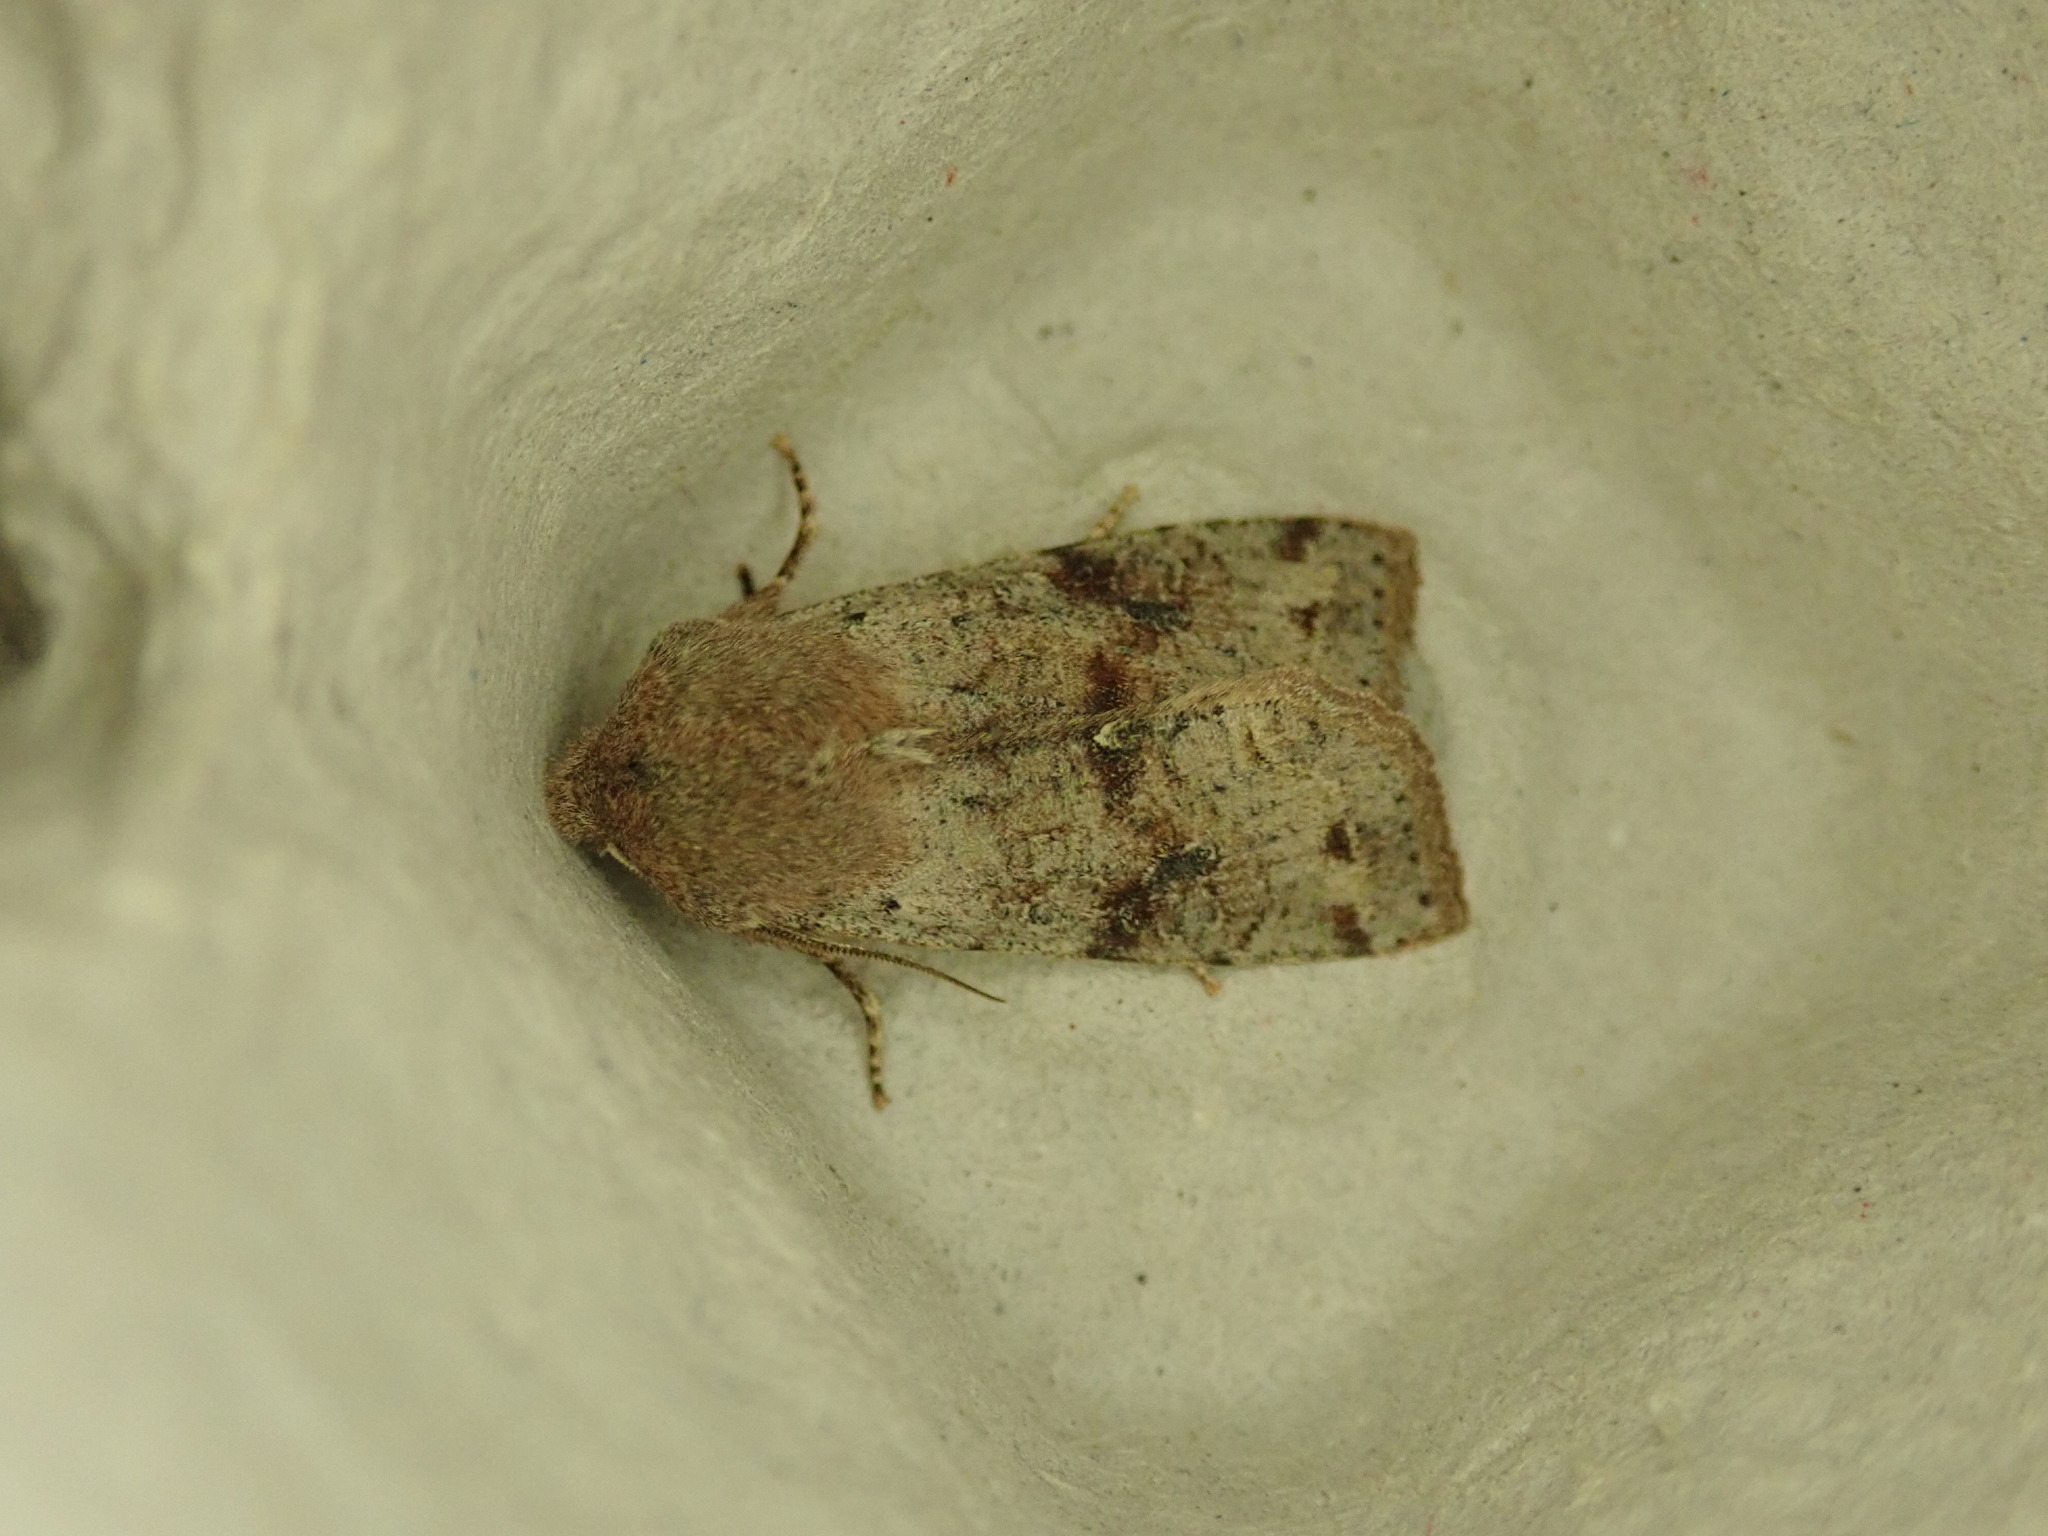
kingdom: Animalia
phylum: Arthropoda
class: Insecta
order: Lepidoptera
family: Noctuidae
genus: Orthosia
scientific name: Orthosia incerta
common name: Clouded drab
